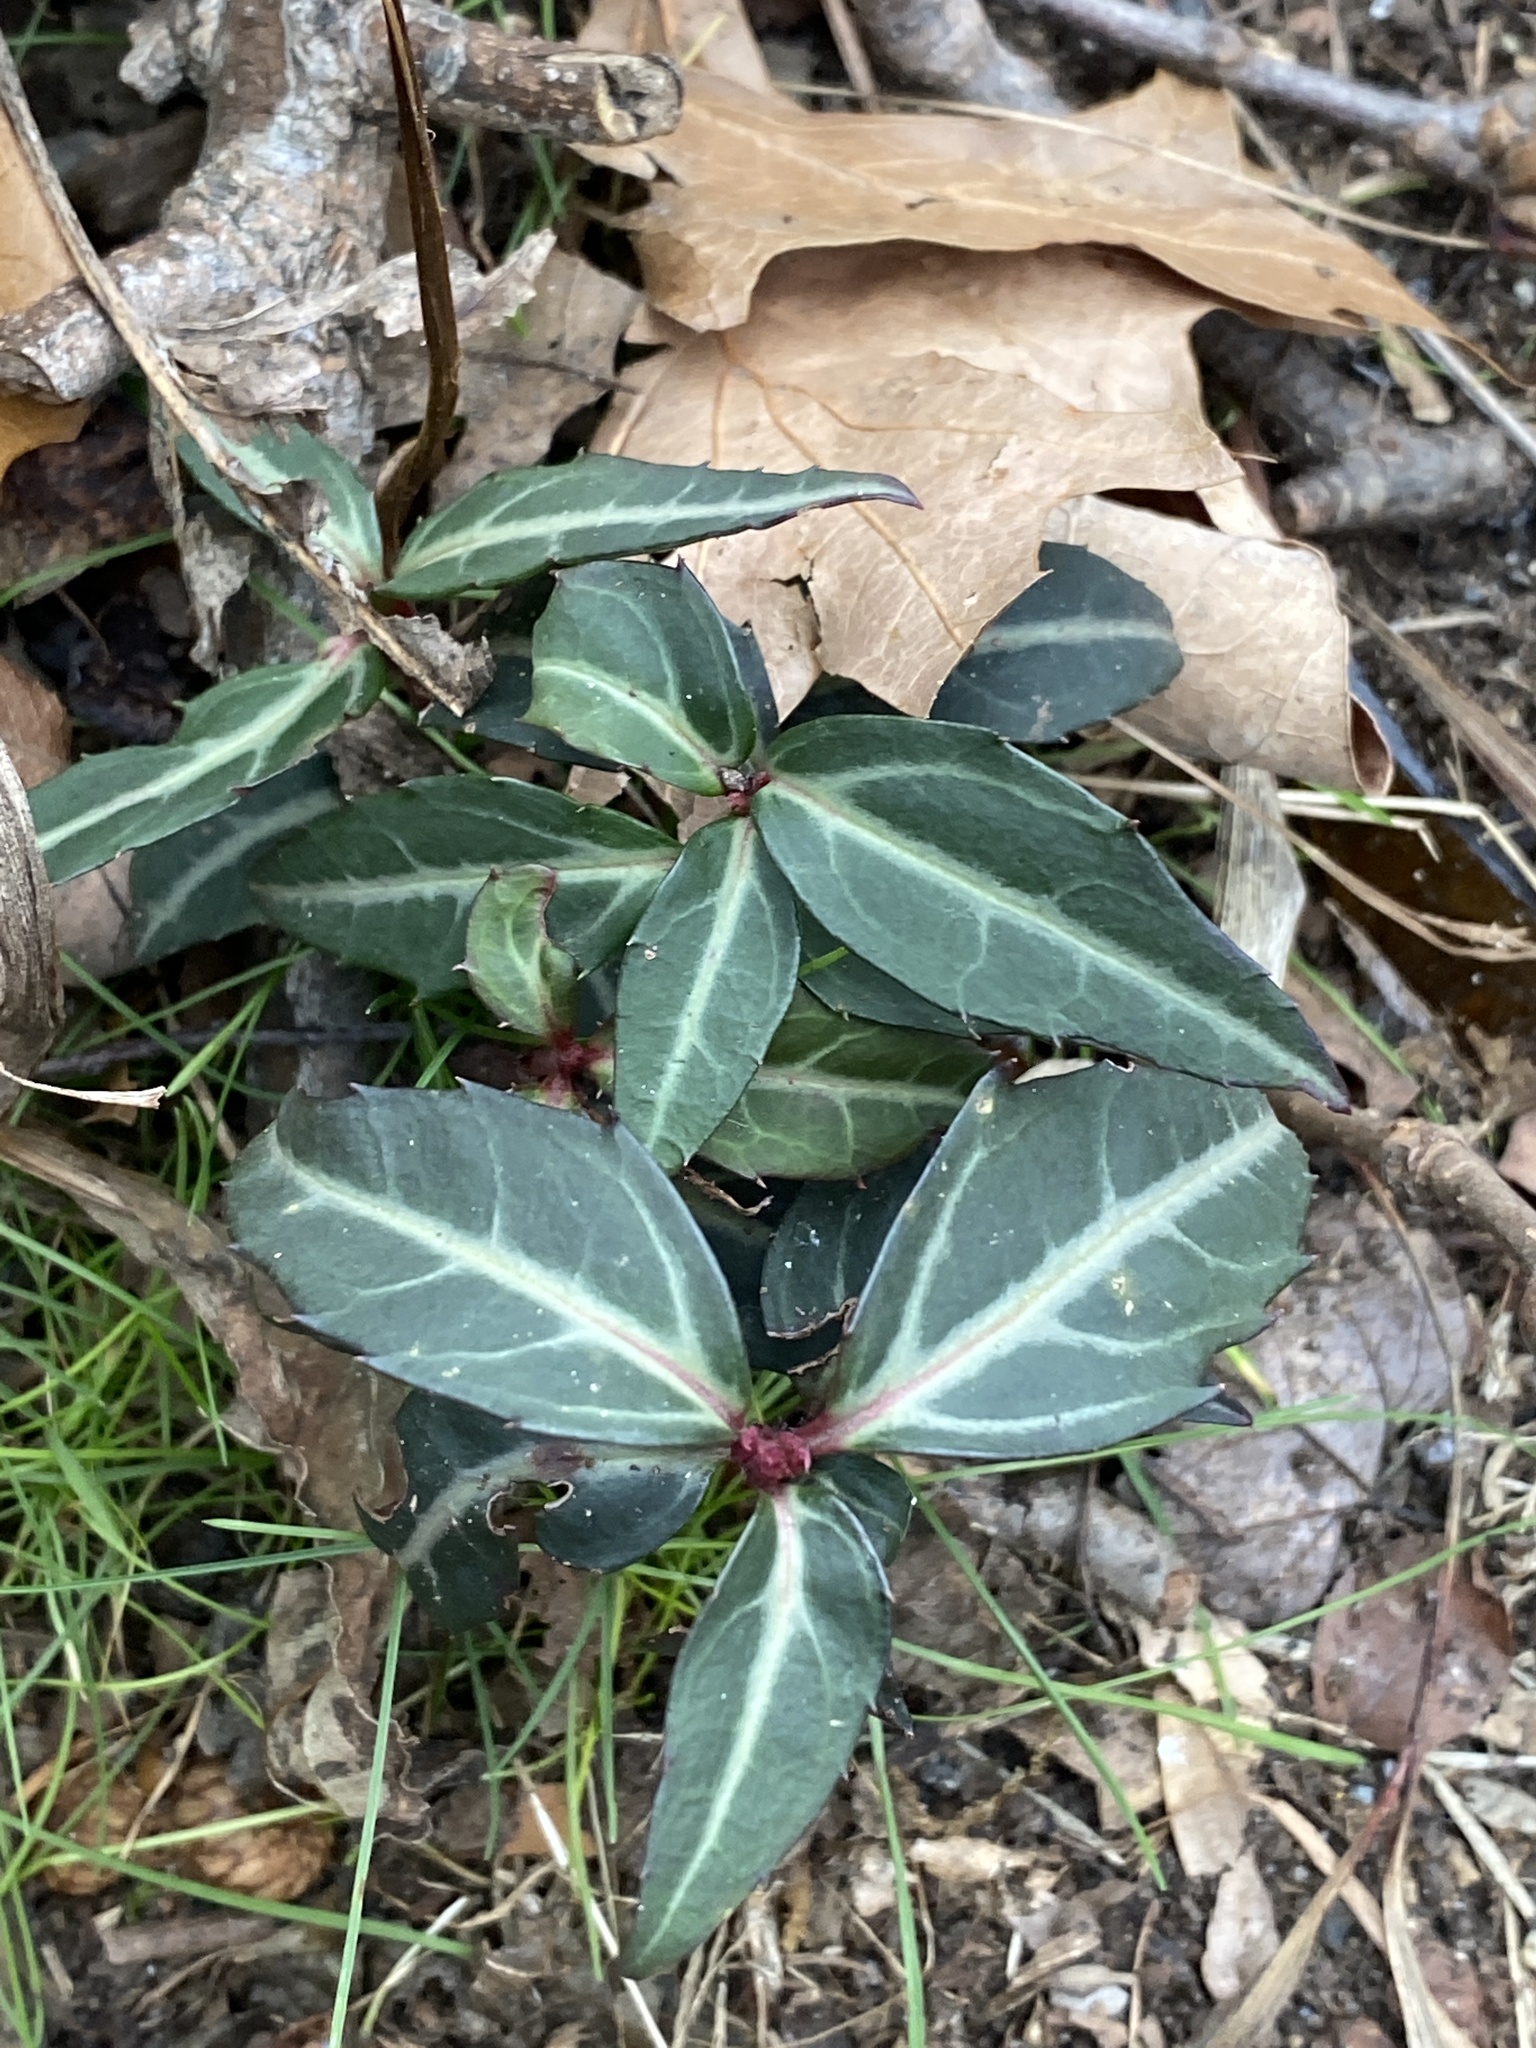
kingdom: Plantae
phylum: Tracheophyta
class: Magnoliopsida
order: Ericales
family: Ericaceae
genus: Chimaphila
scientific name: Chimaphila maculata
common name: Spotted pipsissewa
